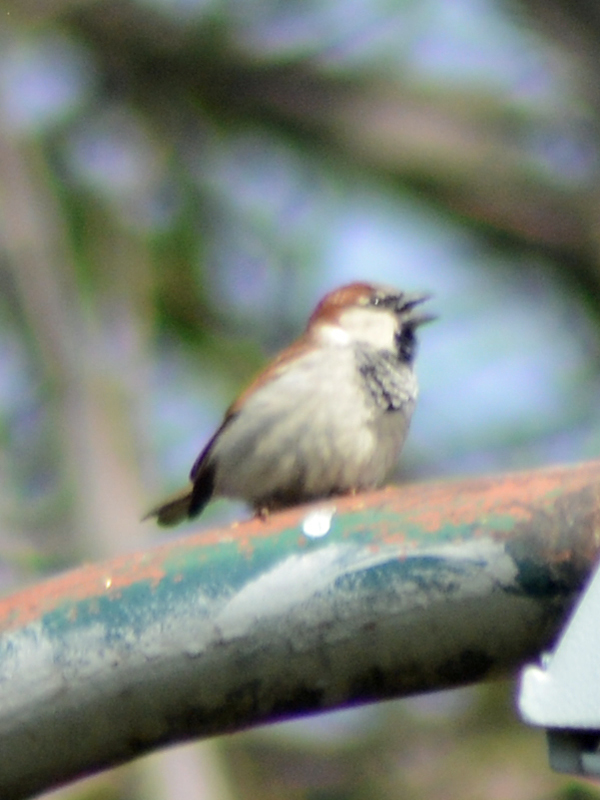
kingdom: Animalia
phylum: Chordata
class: Aves
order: Passeriformes
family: Passeridae
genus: Passer
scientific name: Passer domesticus
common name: House sparrow
